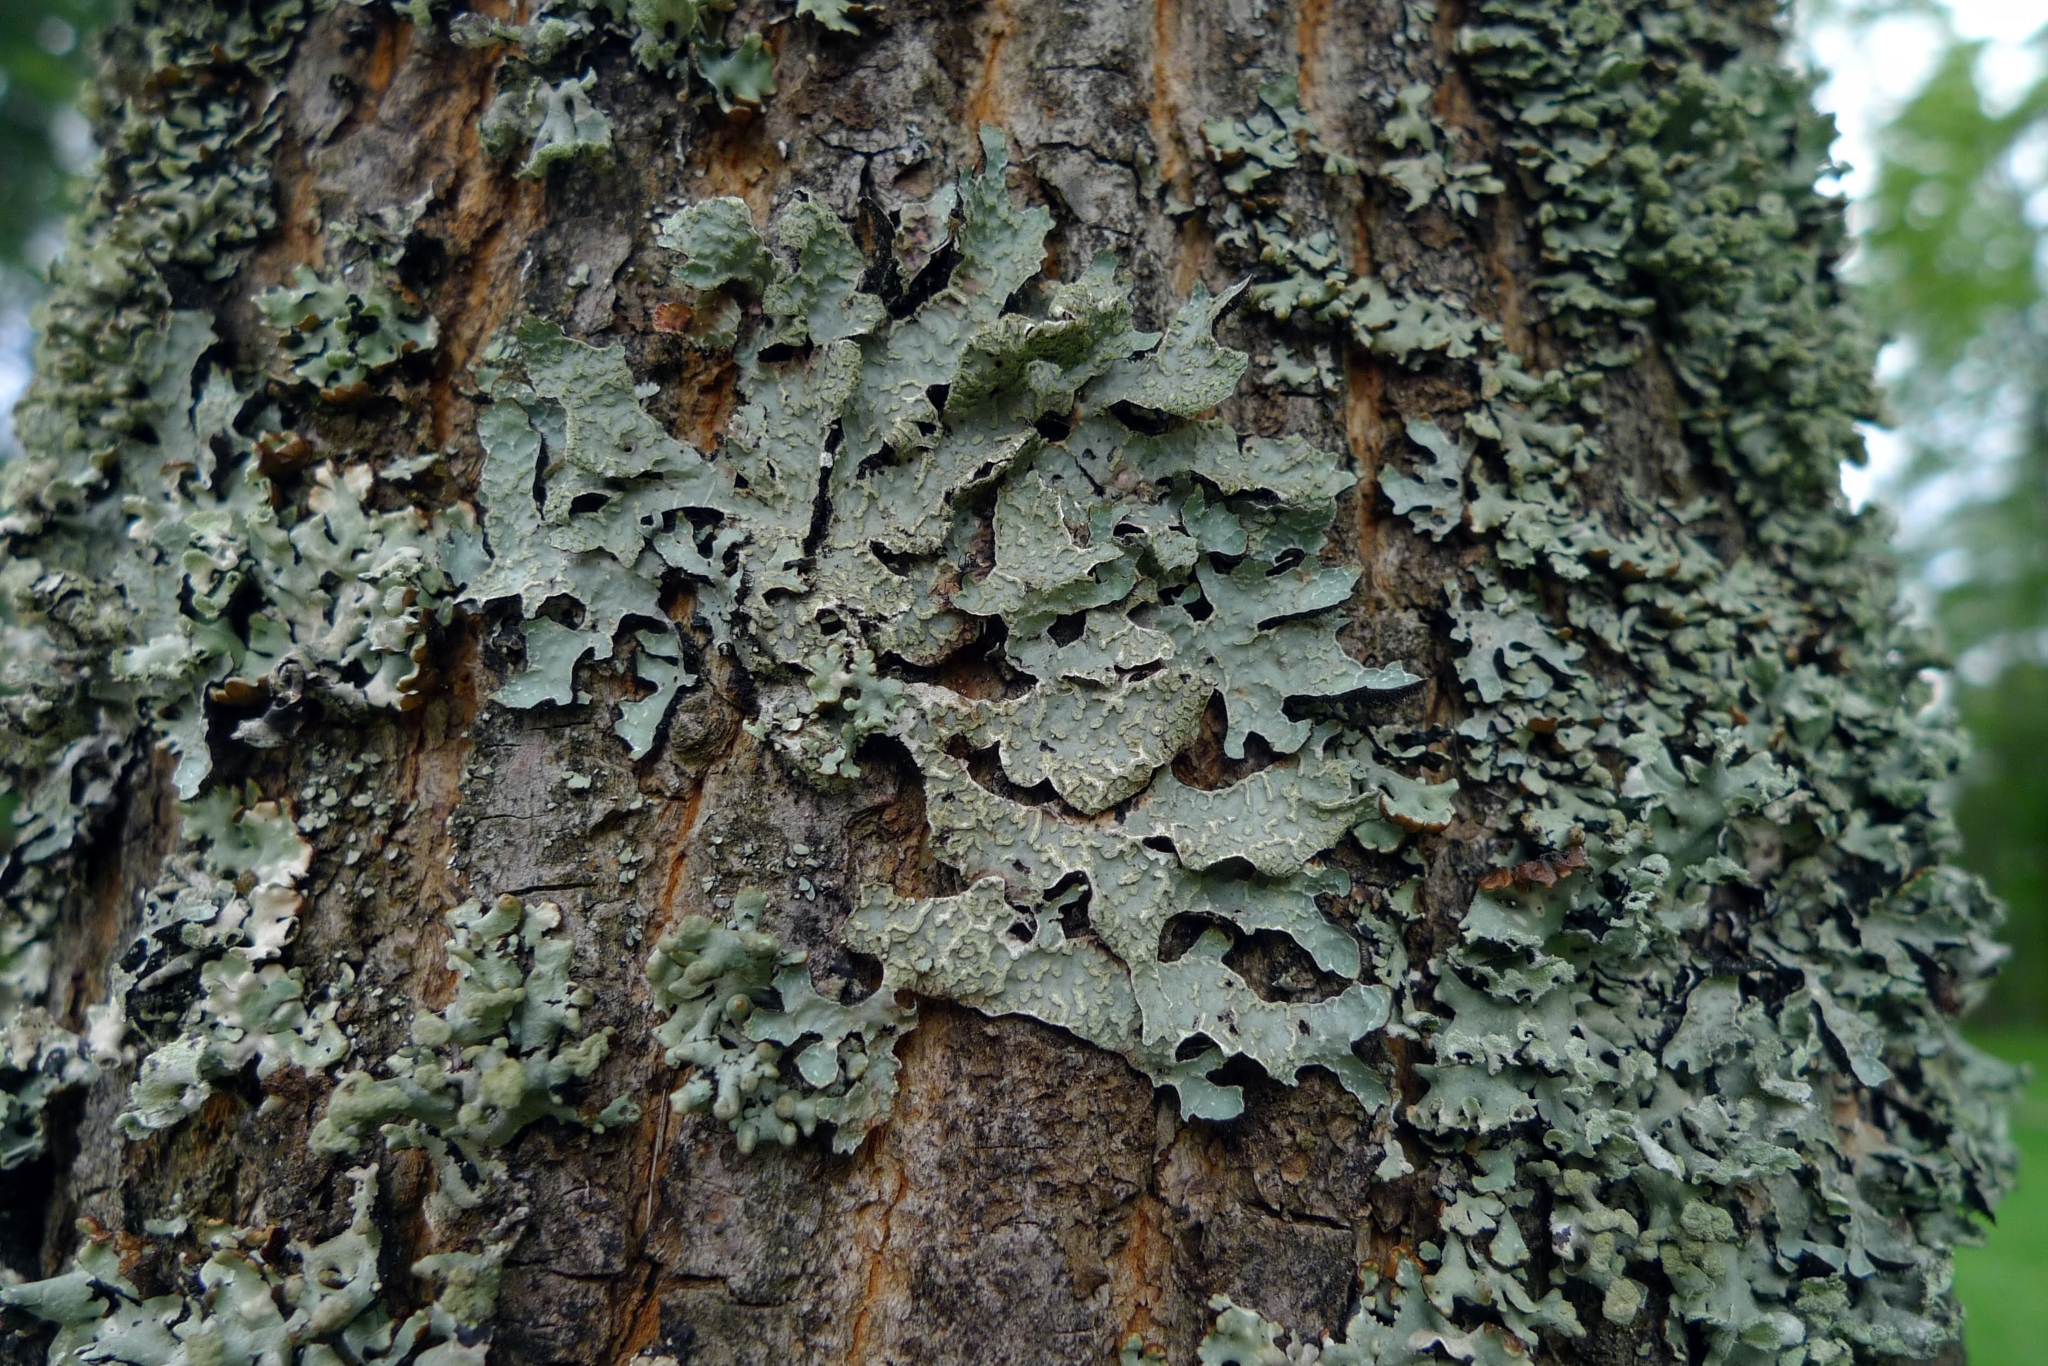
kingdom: Fungi
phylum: Ascomycota
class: Lecanoromycetes
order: Lecanorales
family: Parmeliaceae
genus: Parmelia
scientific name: Parmelia sulcata
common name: Netted shield lichen
